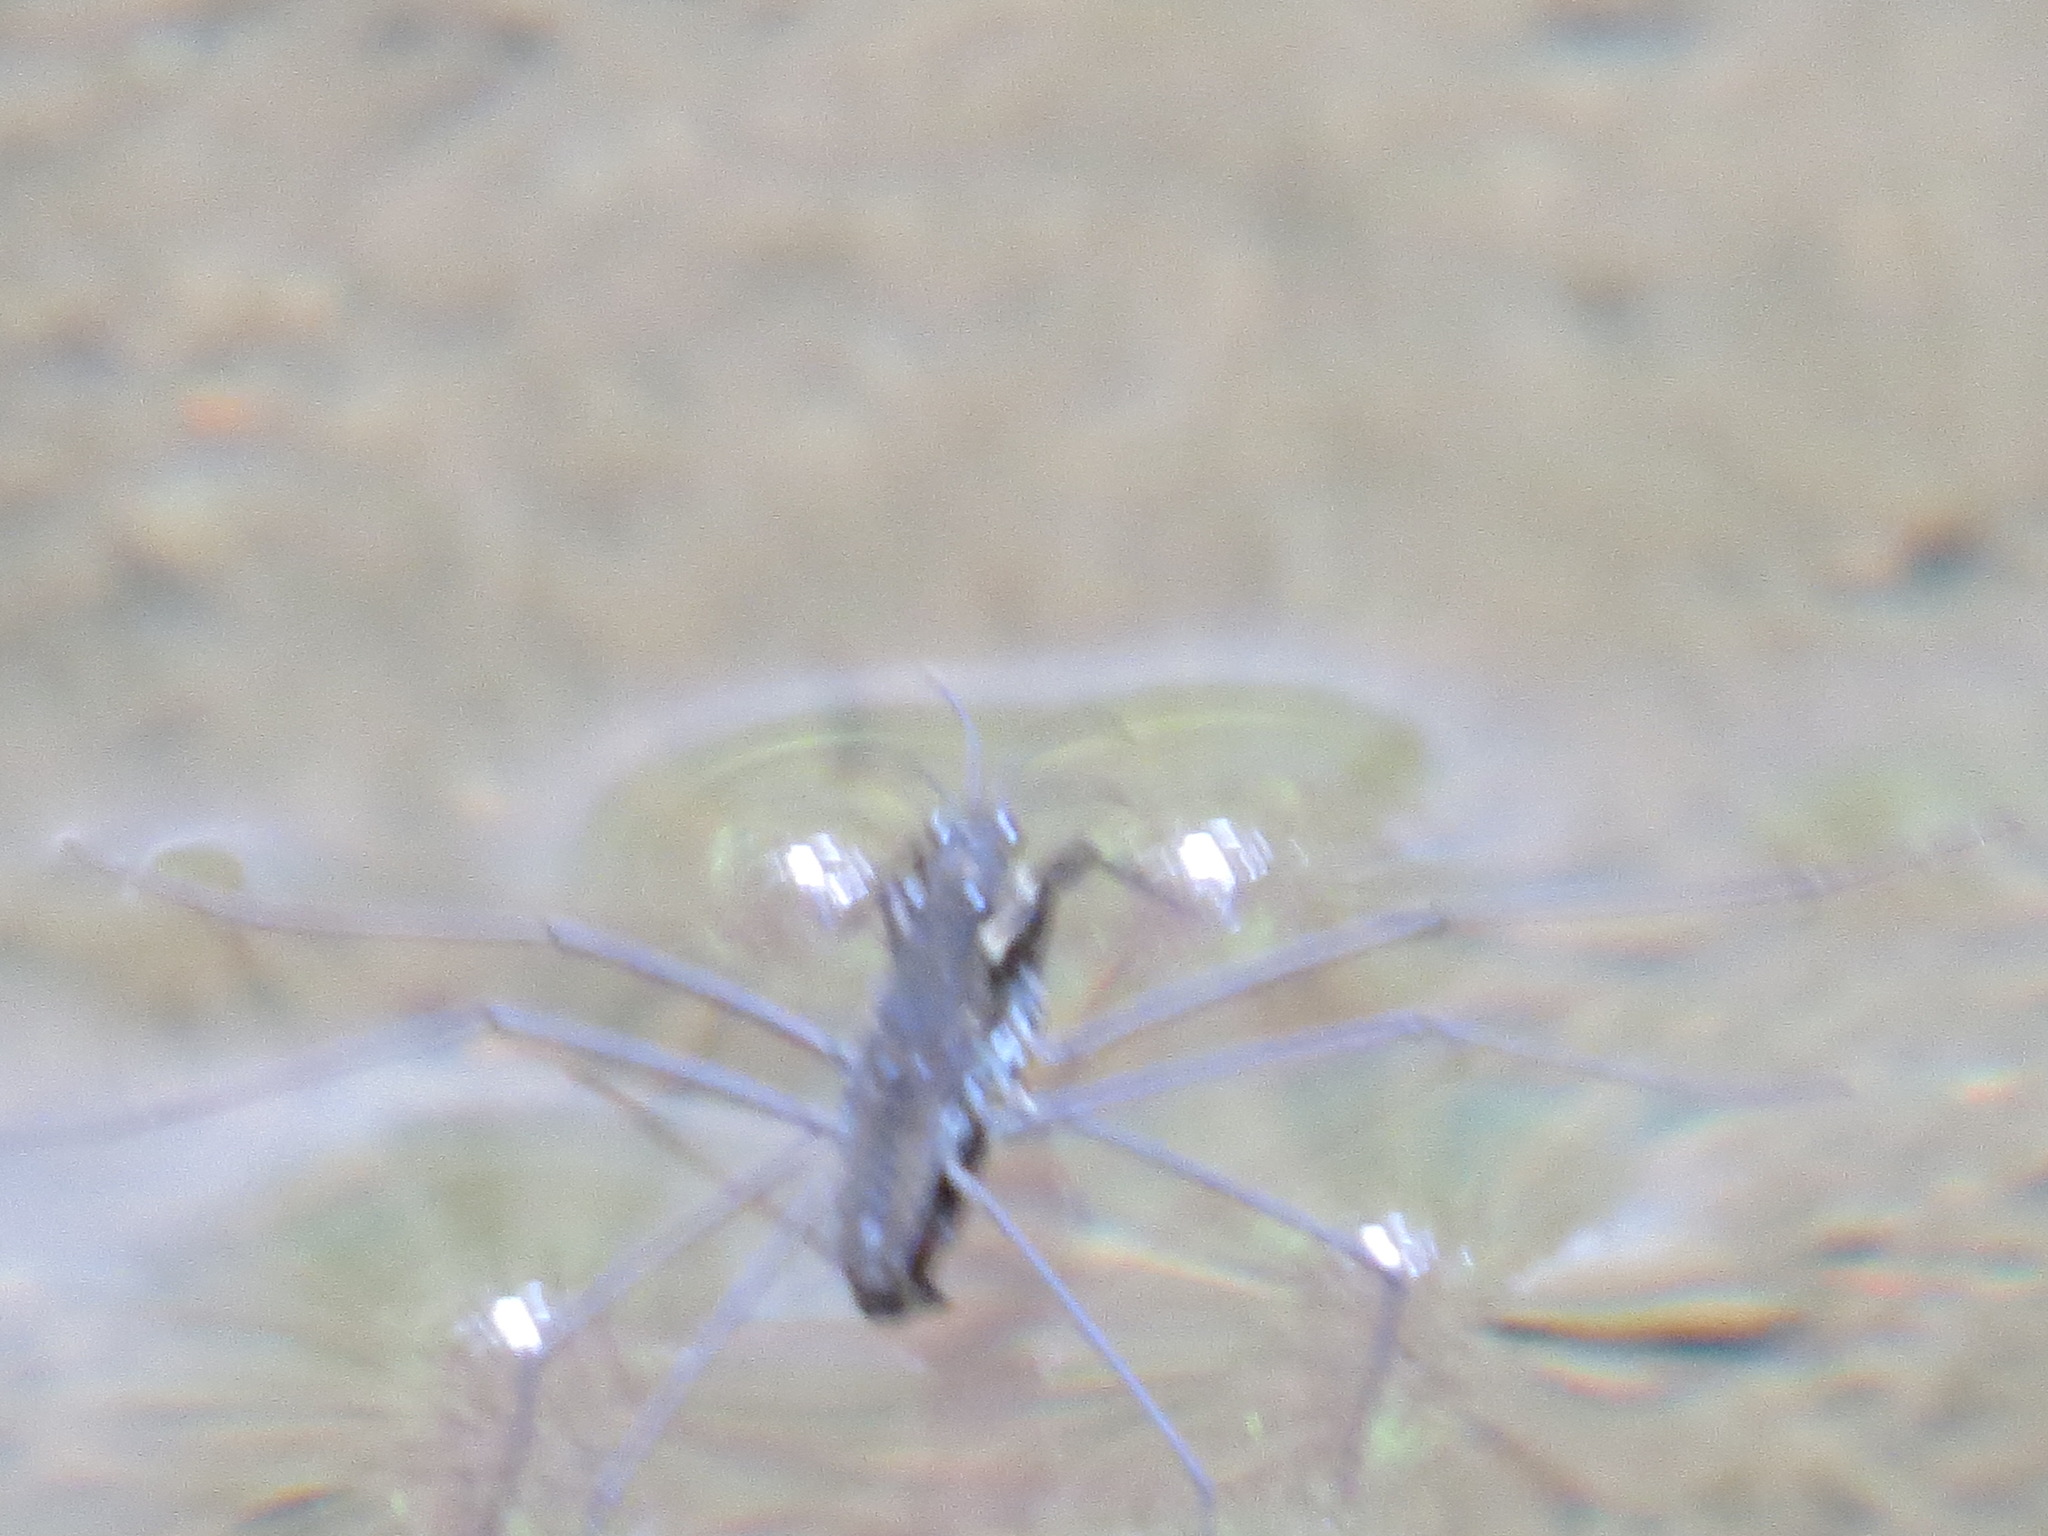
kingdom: Animalia
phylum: Arthropoda
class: Insecta
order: Hemiptera
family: Gerridae
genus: Aquarius
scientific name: Aquarius remigis
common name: Common water strider
